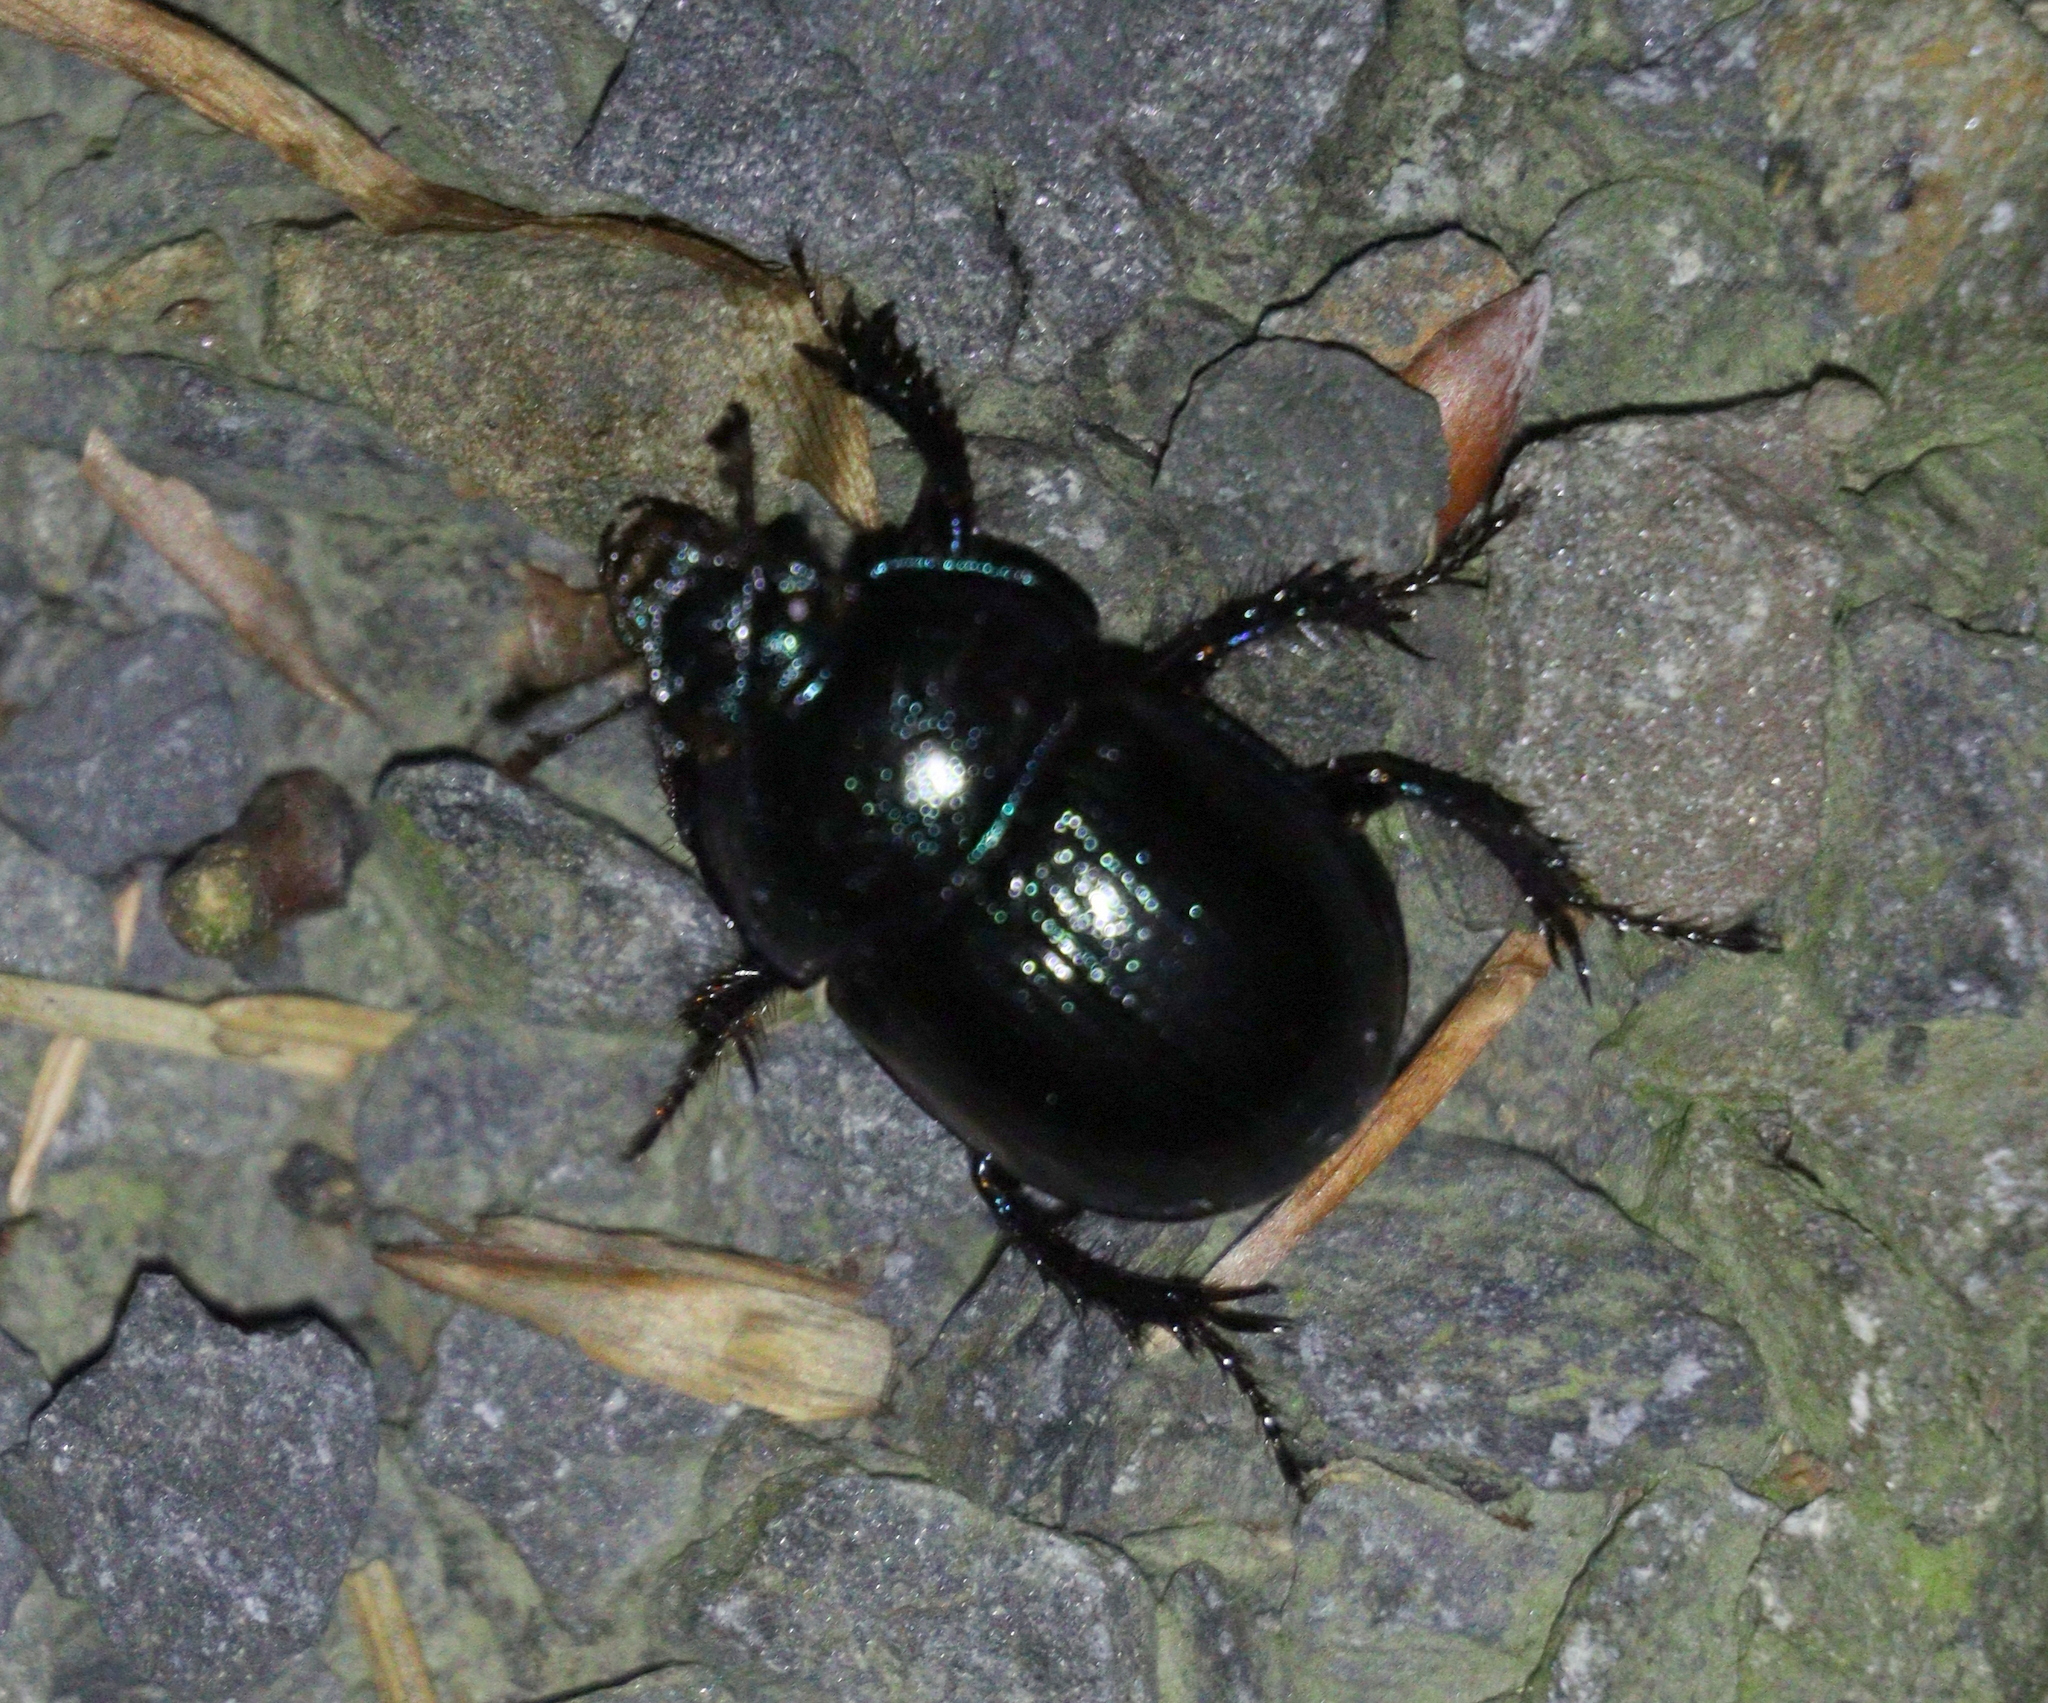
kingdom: Animalia
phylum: Arthropoda
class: Insecta
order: Coleoptera
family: Geotrupidae
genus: Anoplotrupes
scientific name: Anoplotrupes stercorosus
